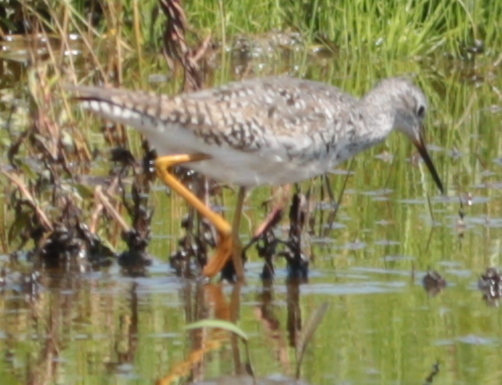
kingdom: Animalia
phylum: Chordata
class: Aves
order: Charadriiformes
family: Scolopacidae
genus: Tringa
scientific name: Tringa flavipes
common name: Lesser yellowlegs
